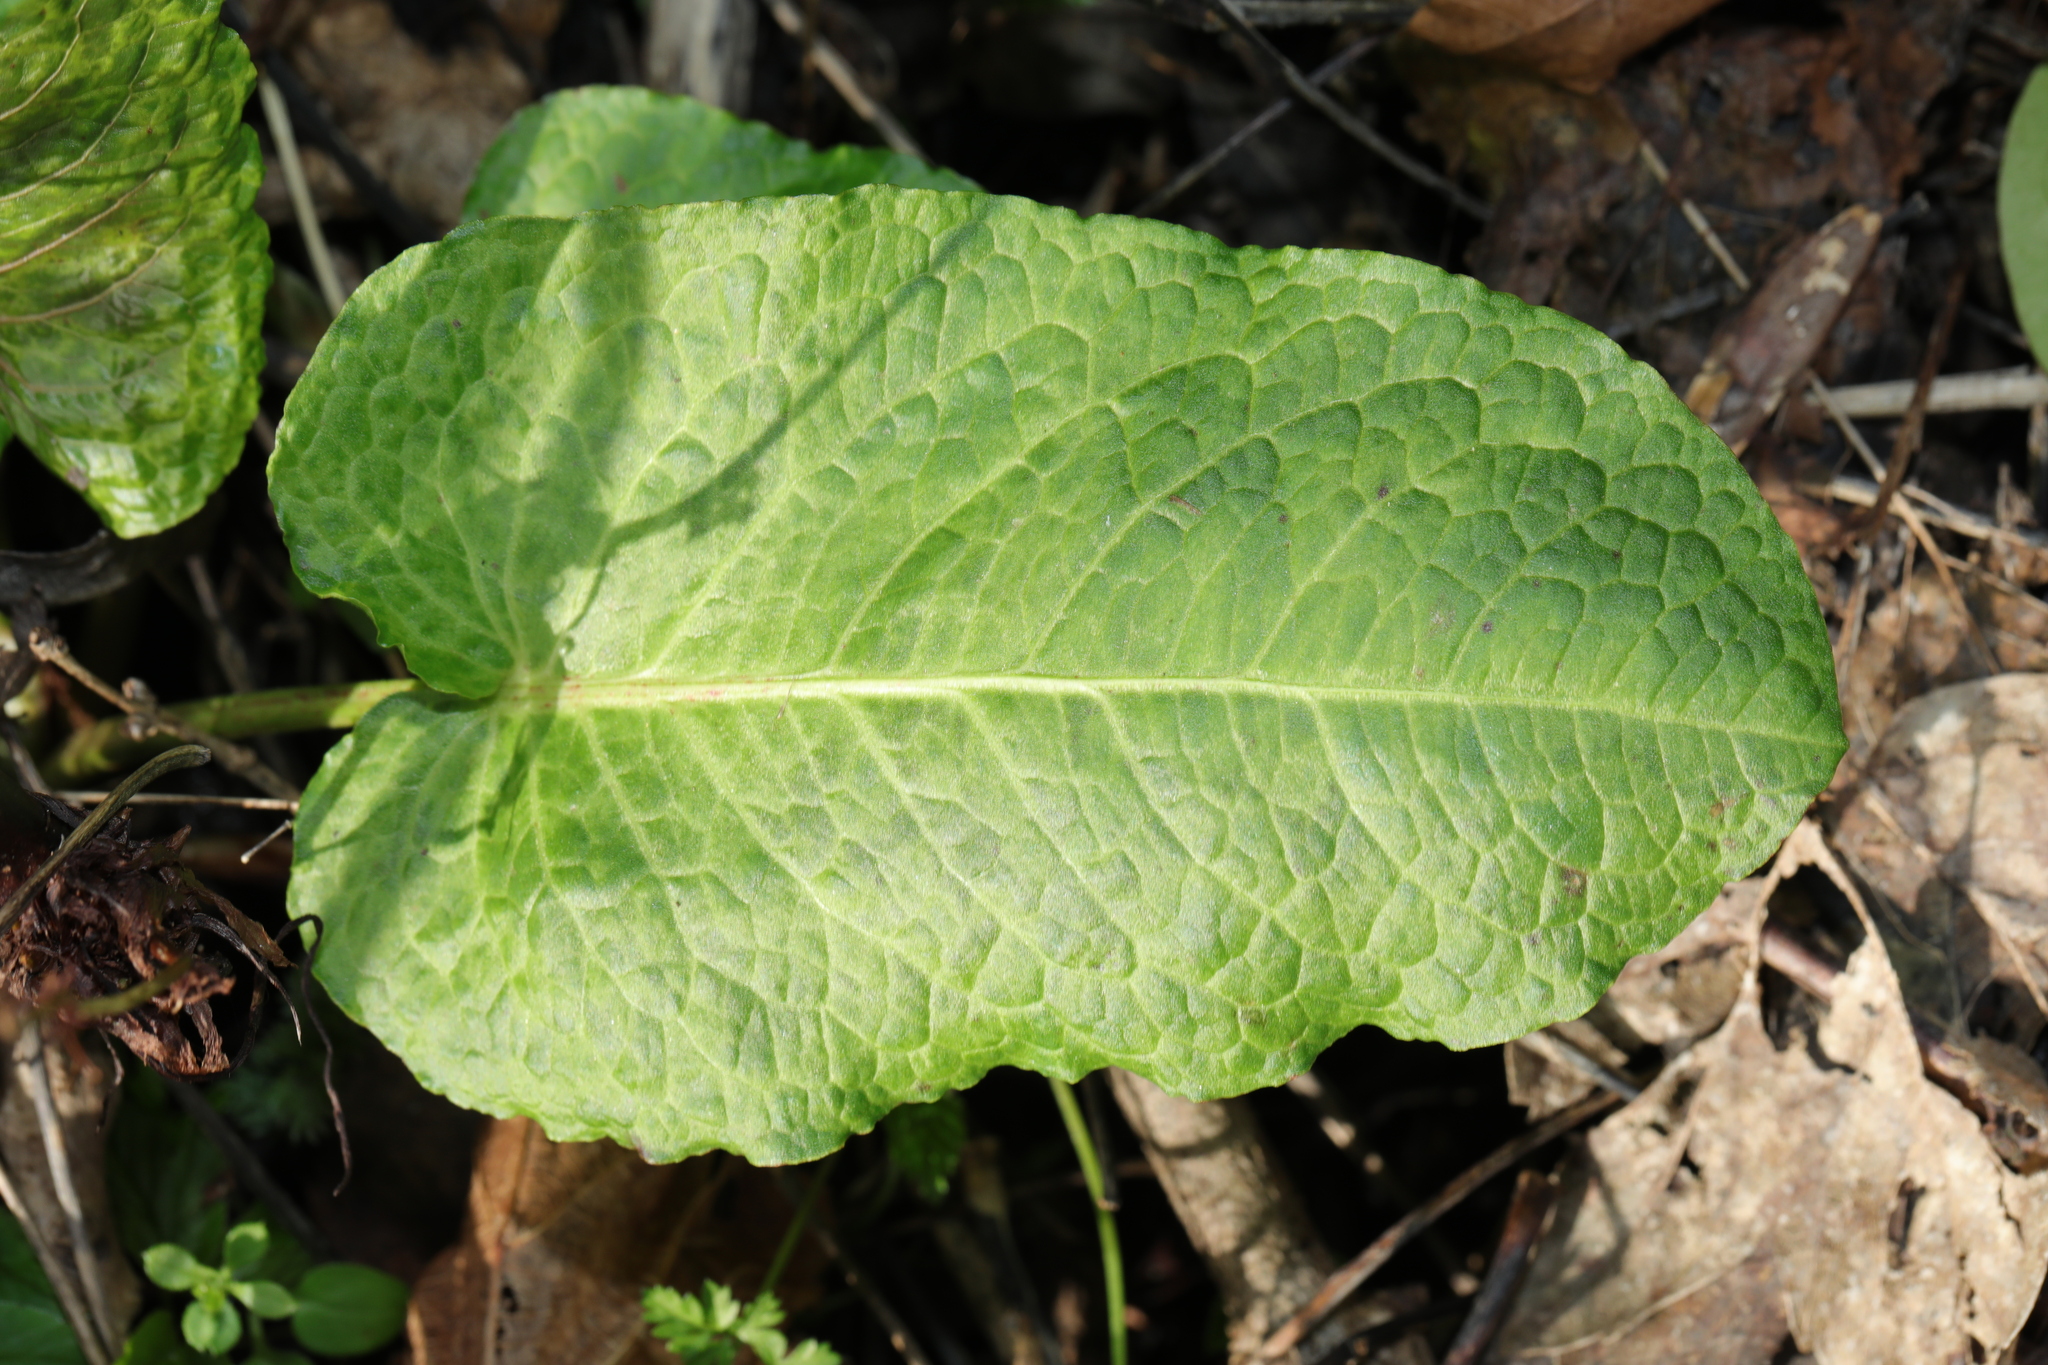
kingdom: Plantae
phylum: Tracheophyta
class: Magnoliopsida
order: Caryophyllales
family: Polygonaceae
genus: Rumex
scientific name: Rumex obtusifolius
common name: Bitter dock
